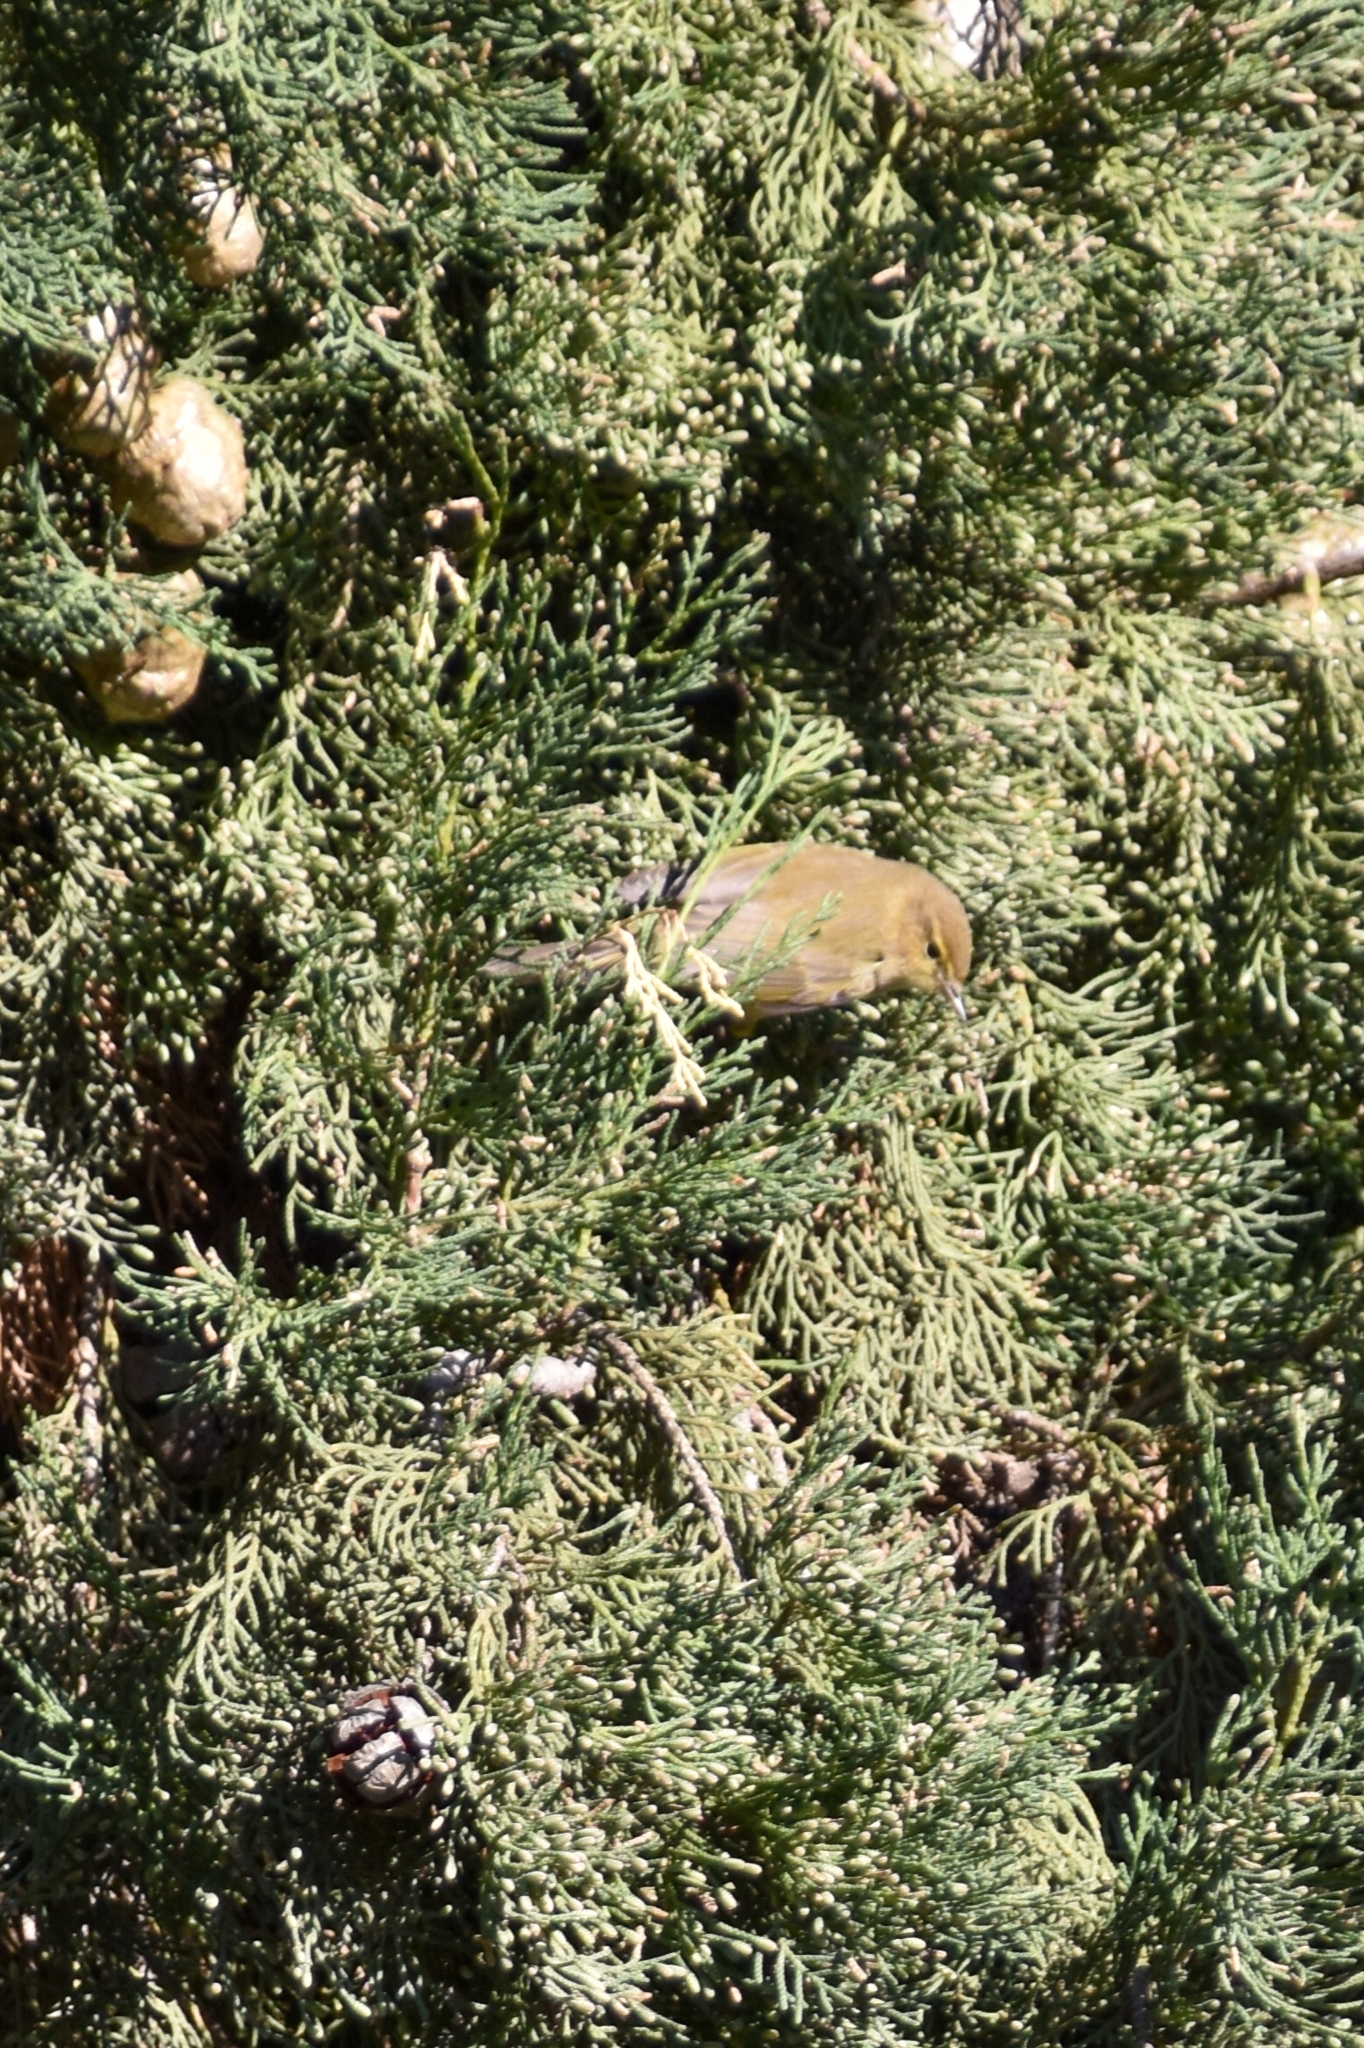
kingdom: Animalia
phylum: Chordata
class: Aves
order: Passeriformes
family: Phylloscopidae
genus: Phylloscopus
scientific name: Phylloscopus collybita
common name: Common chiffchaff
